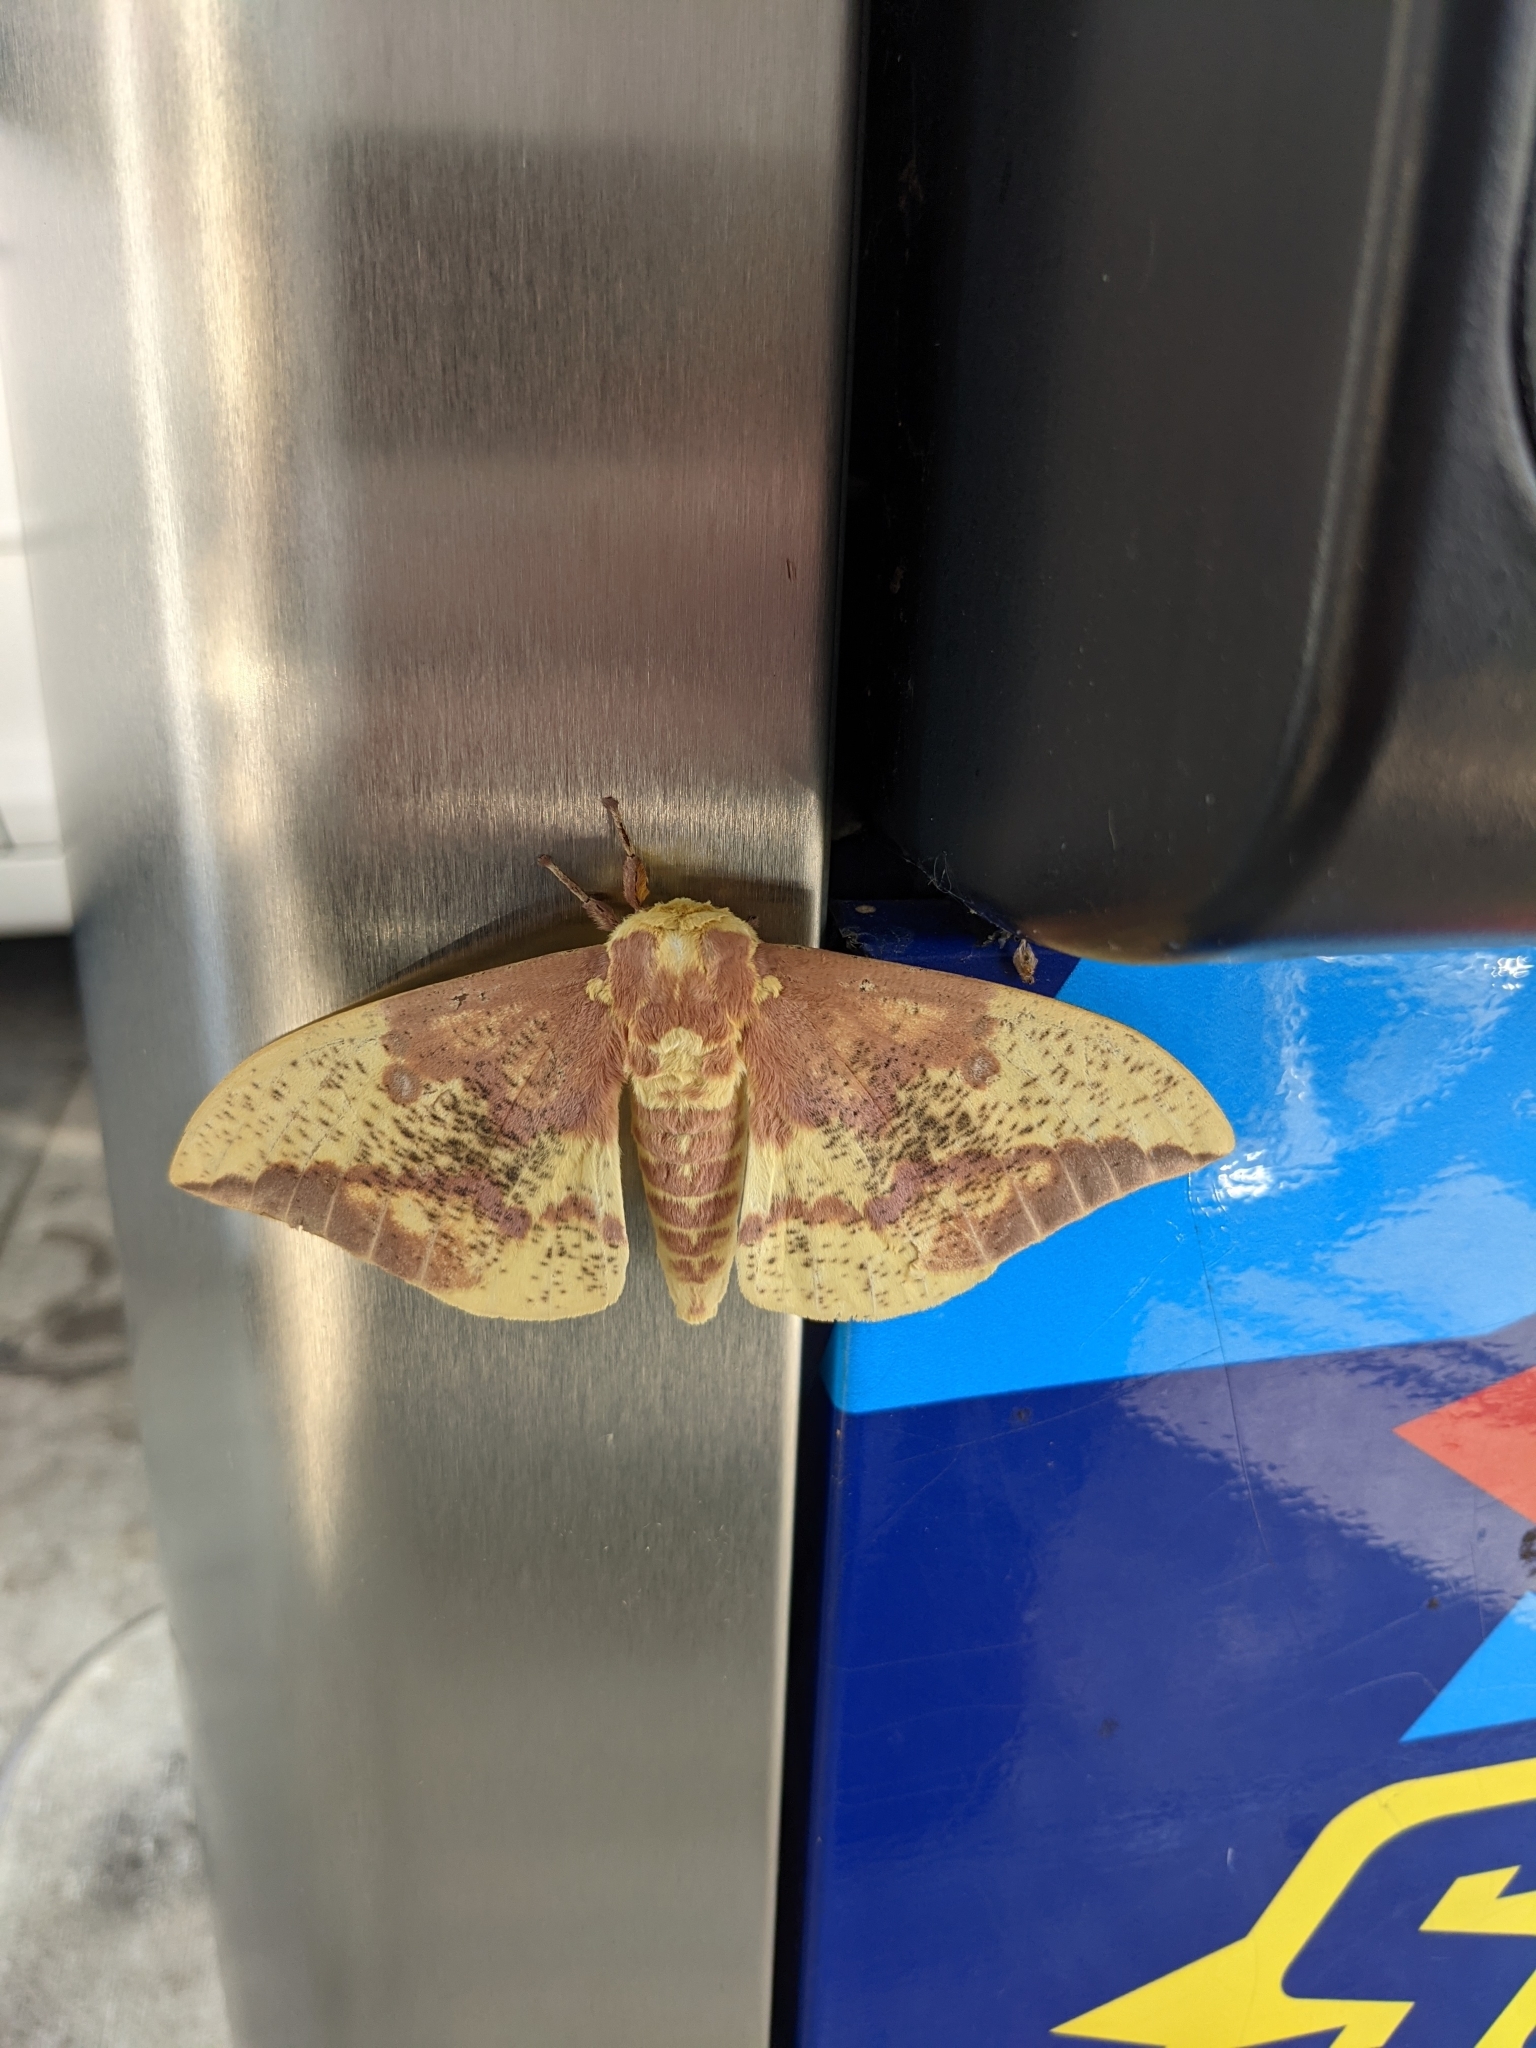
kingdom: Animalia
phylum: Arthropoda
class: Insecta
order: Lepidoptera
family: Saturniidae
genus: Eacles
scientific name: Eacles imperialis
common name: Imperial moth
